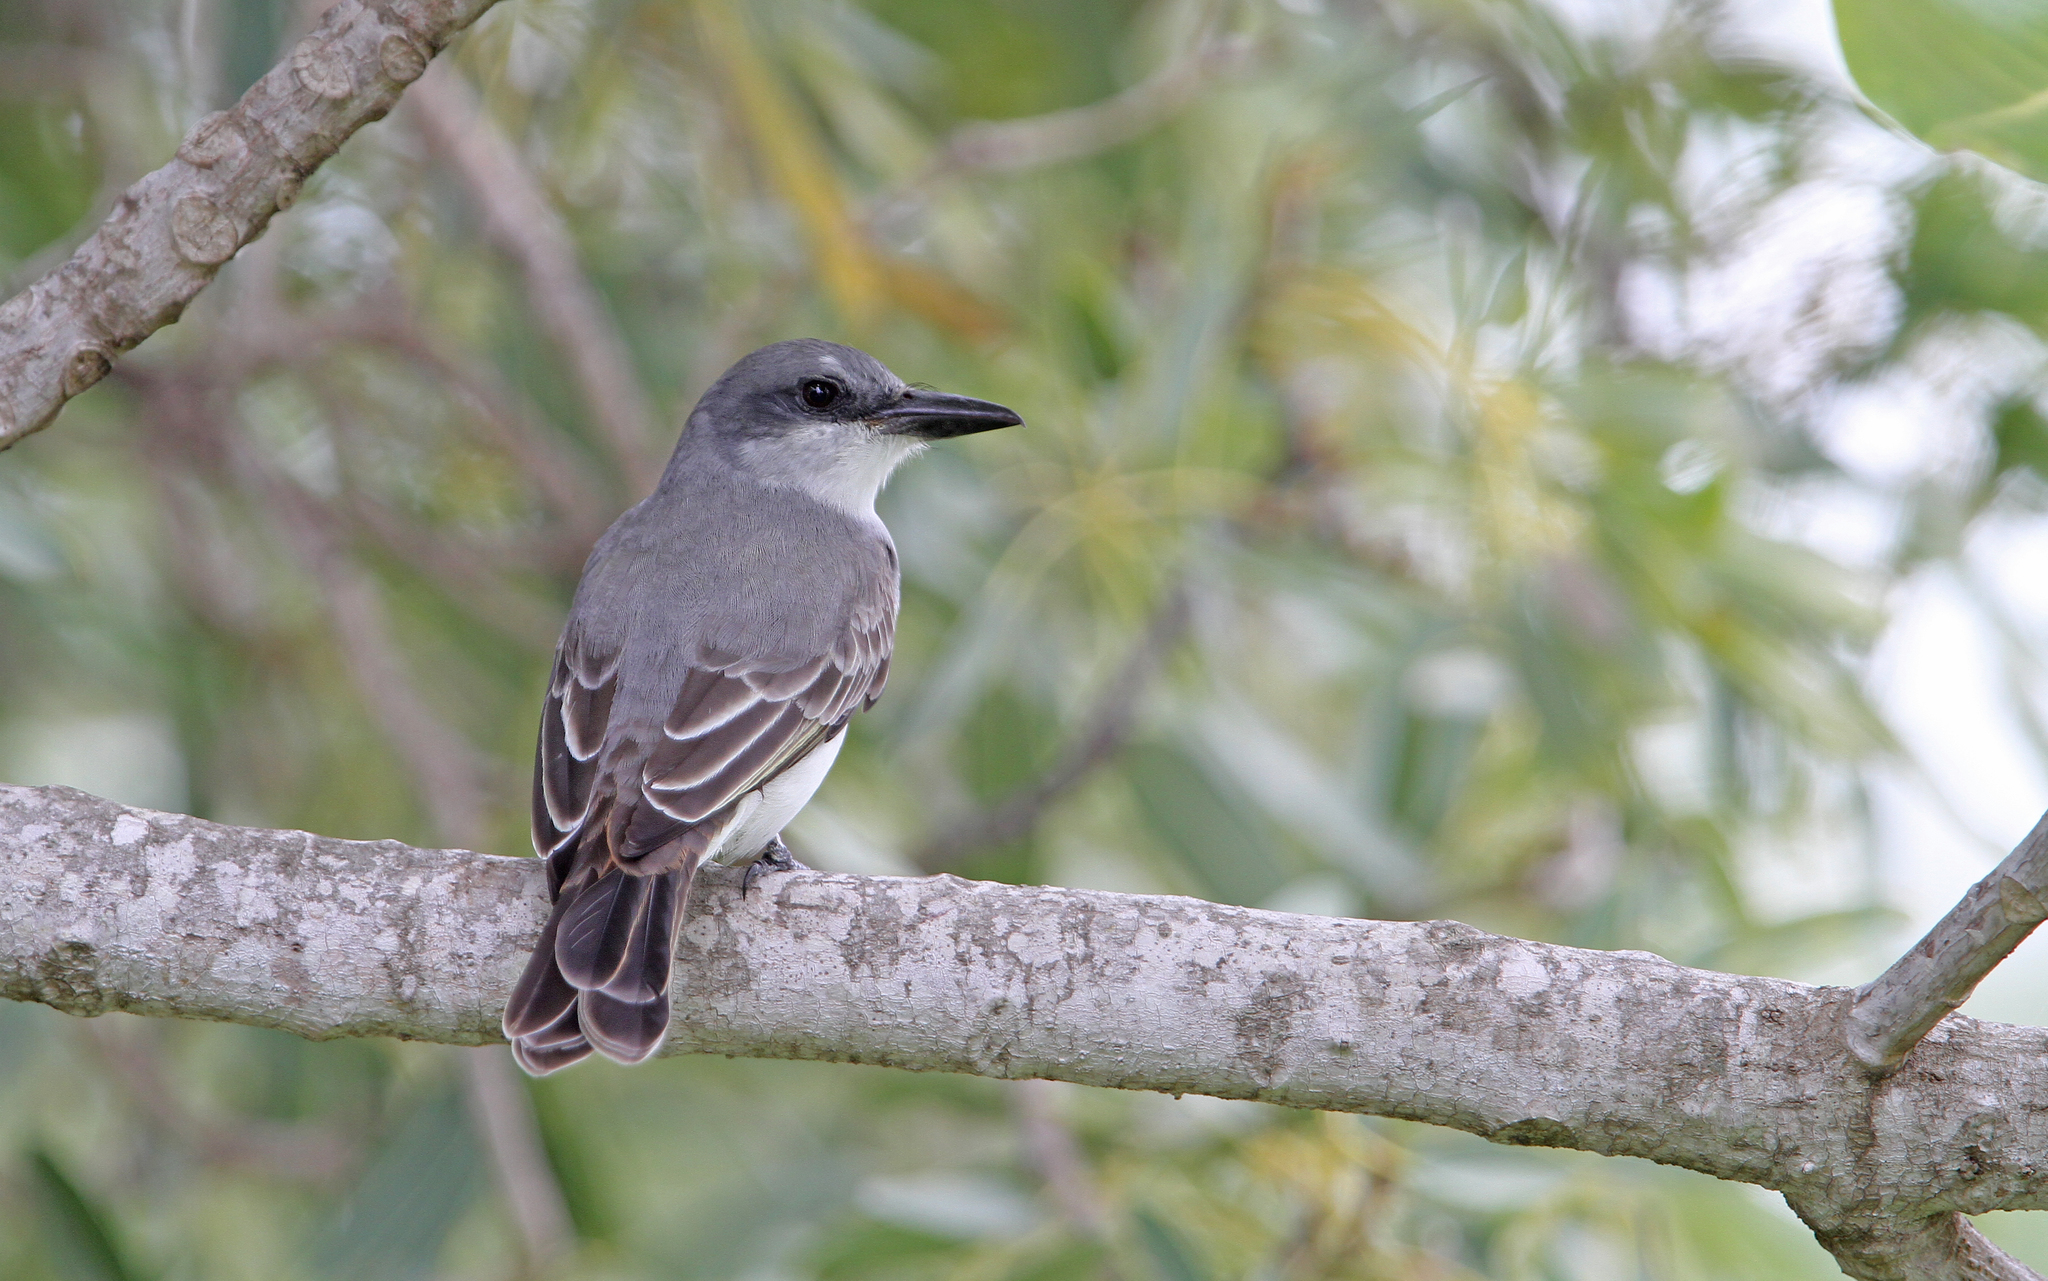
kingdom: Animalia
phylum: Chordata
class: Aves
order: Passeriformes
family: Tyrannidae
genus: Tyrannus
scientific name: Tyrannus dominicensis
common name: Gray kingbird
